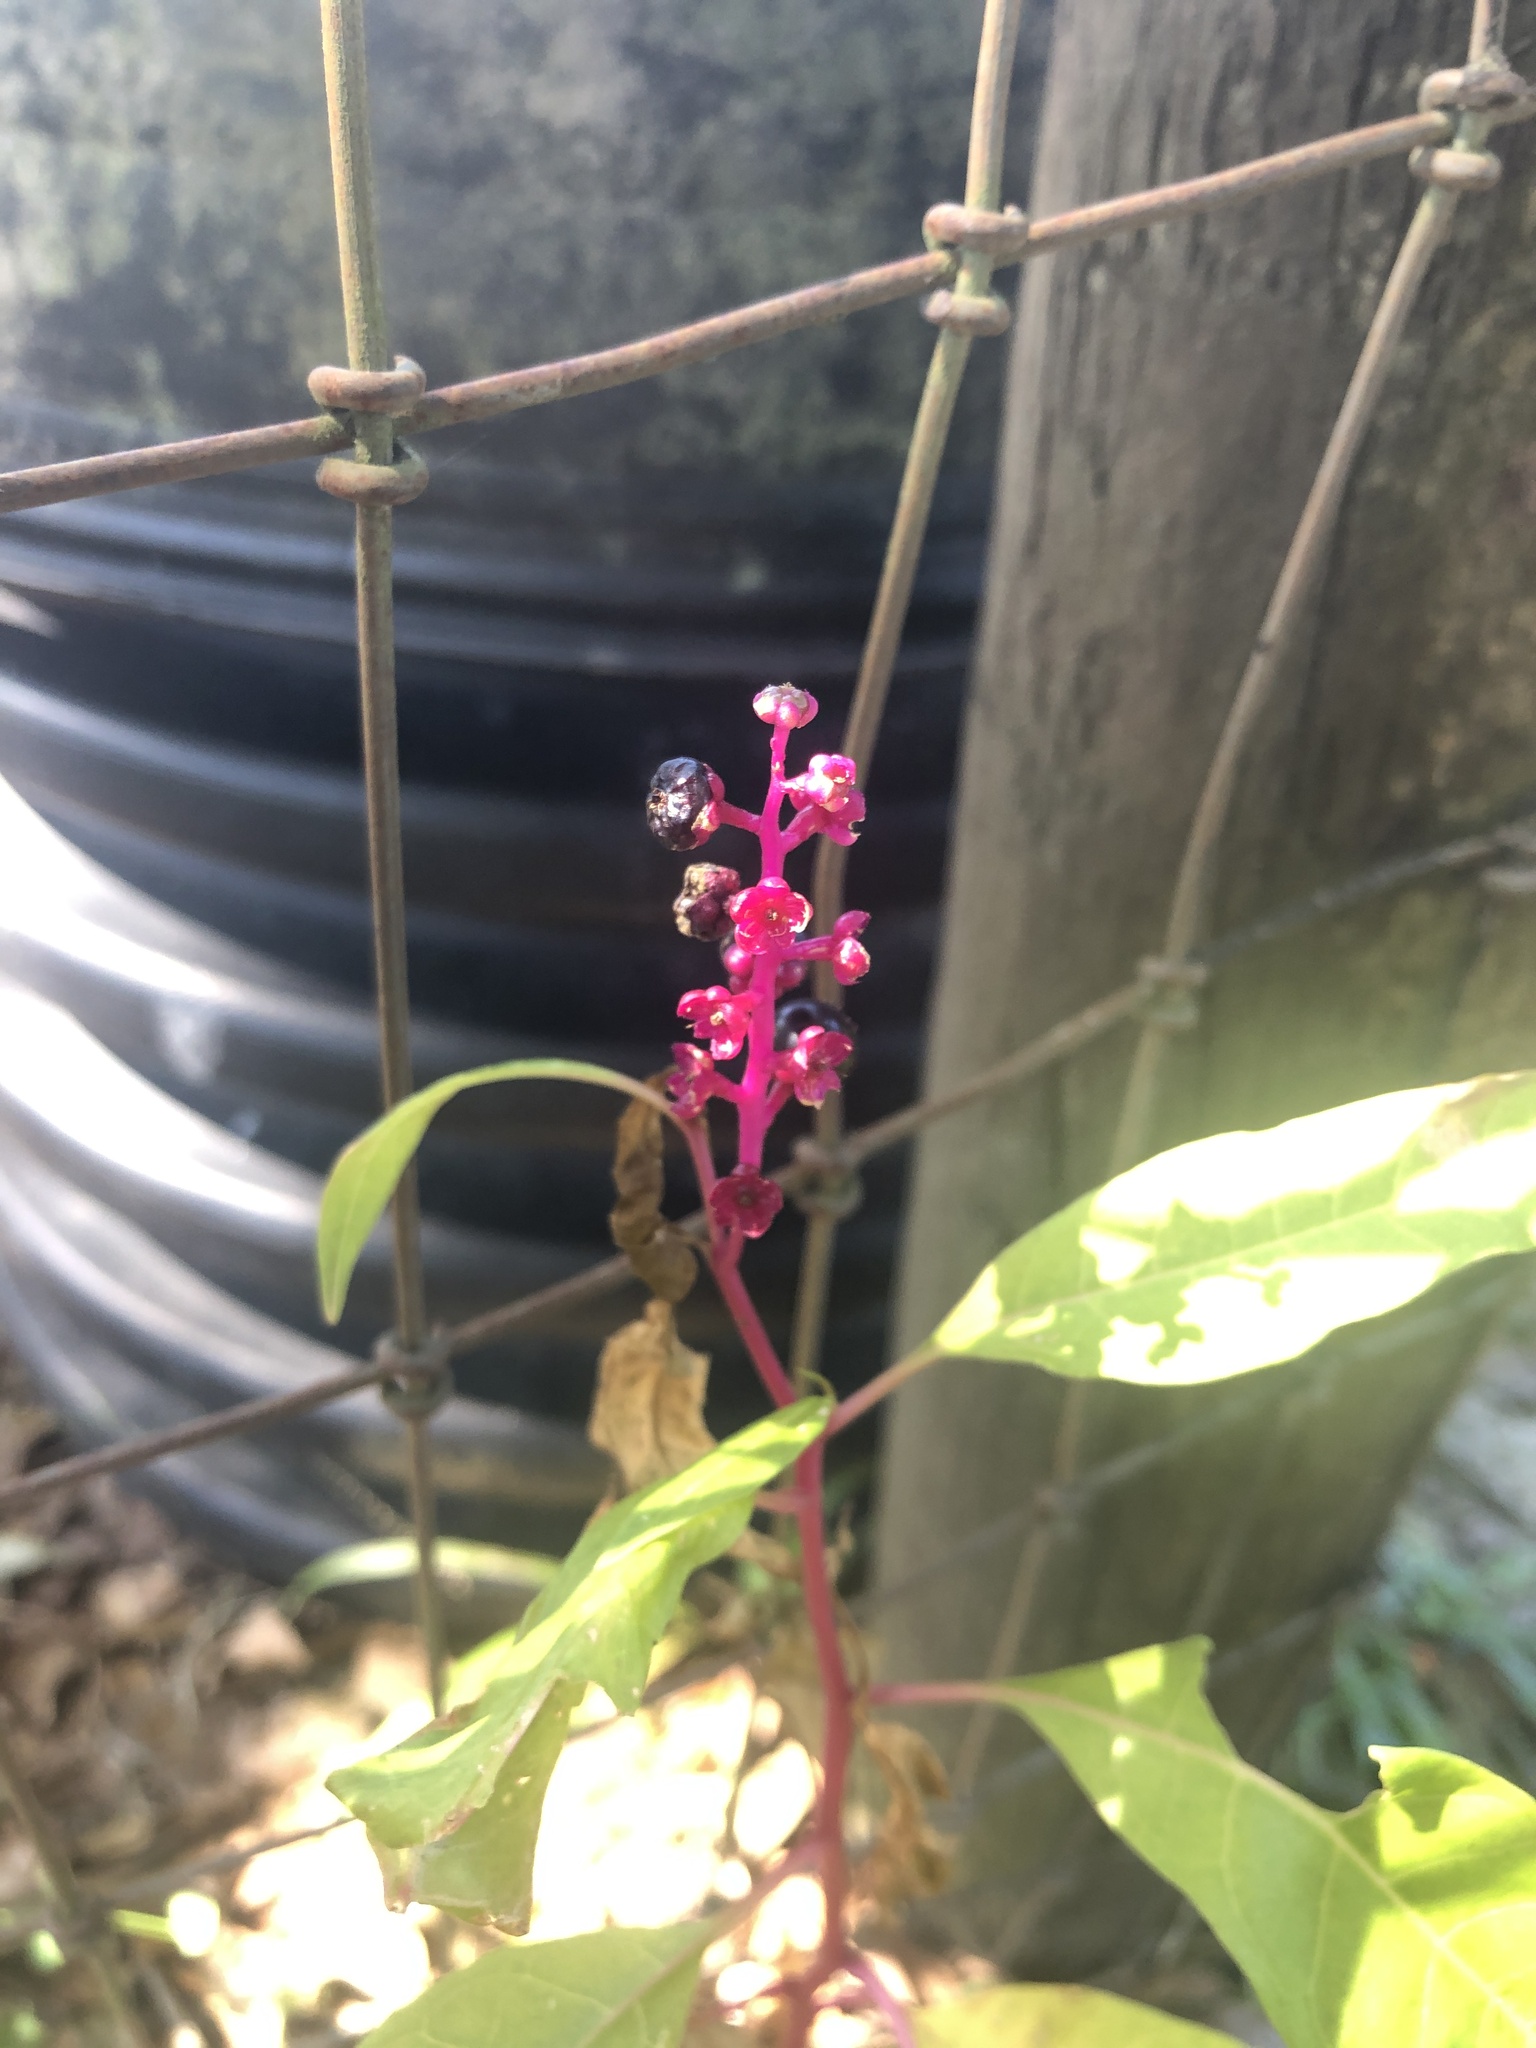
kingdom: Plantae
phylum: Tracheophyta
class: Magnoliopsida
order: Caryophyllales
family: Phytolaccaceae
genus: Phytolacca
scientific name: Phytolacca americana
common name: American pokeweed
